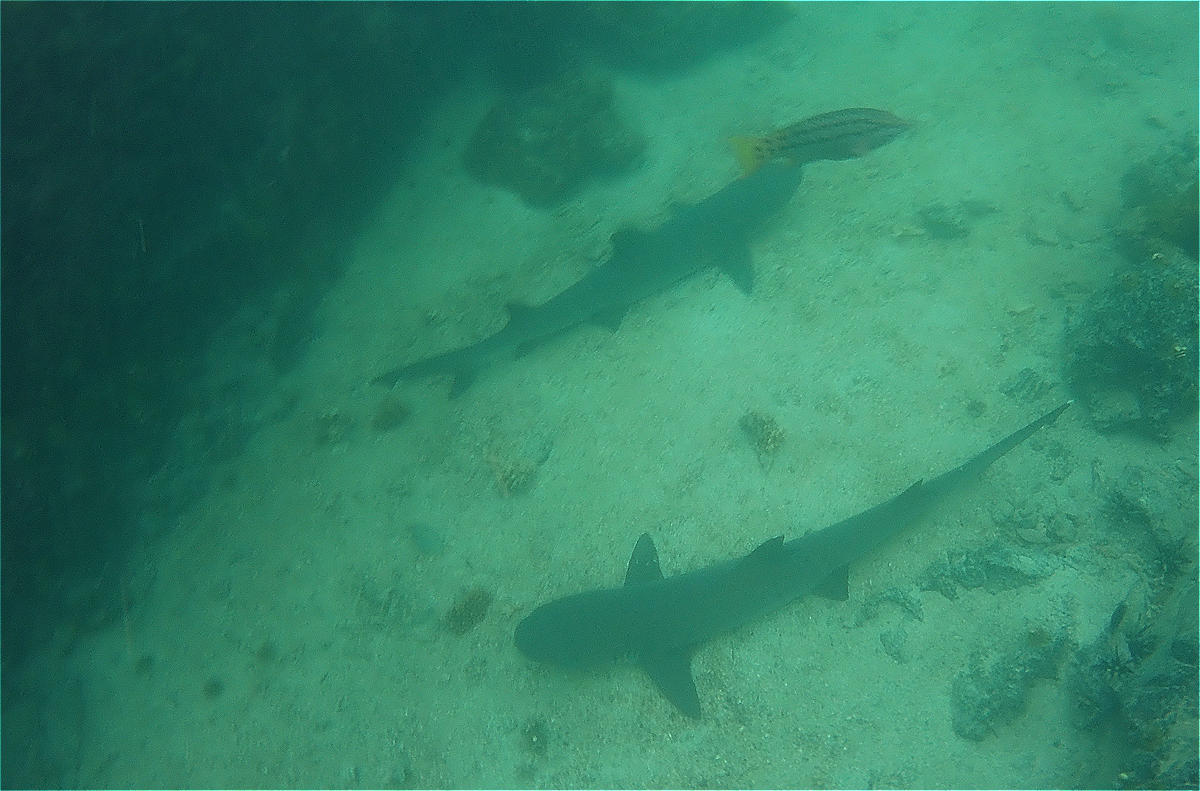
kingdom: Animalia
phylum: Chordata
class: Elasmobranchii
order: Carcharhiniformes
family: Carcharhinidae
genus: Triaenodon
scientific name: Triaenodon obesus
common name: Whitetip reef shark
